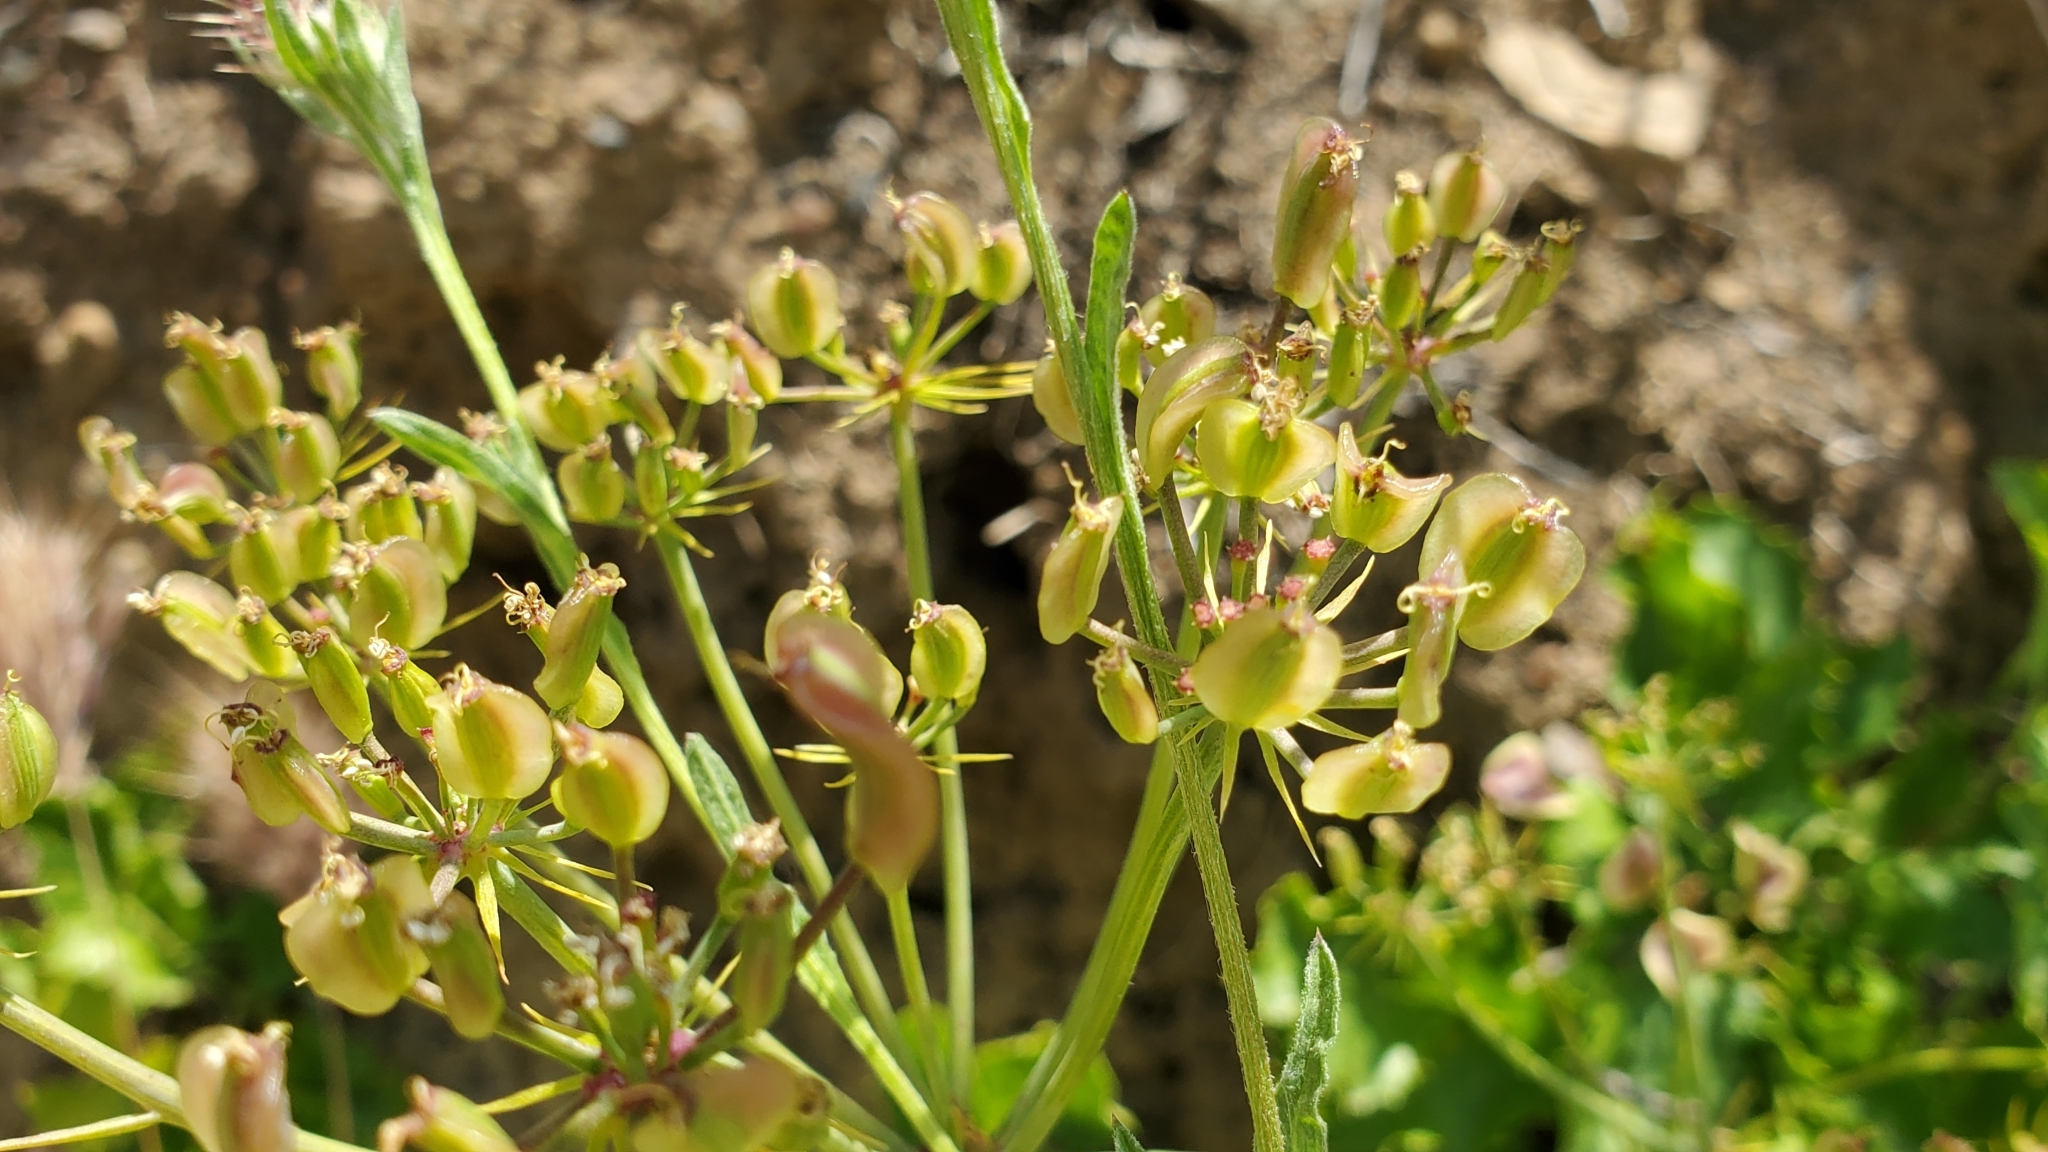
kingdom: Plantae
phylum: Tracheophyta
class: Magnoliopsida
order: Apiales
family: Apiaceae
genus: Lomatium
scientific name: Lomatium lucidum
